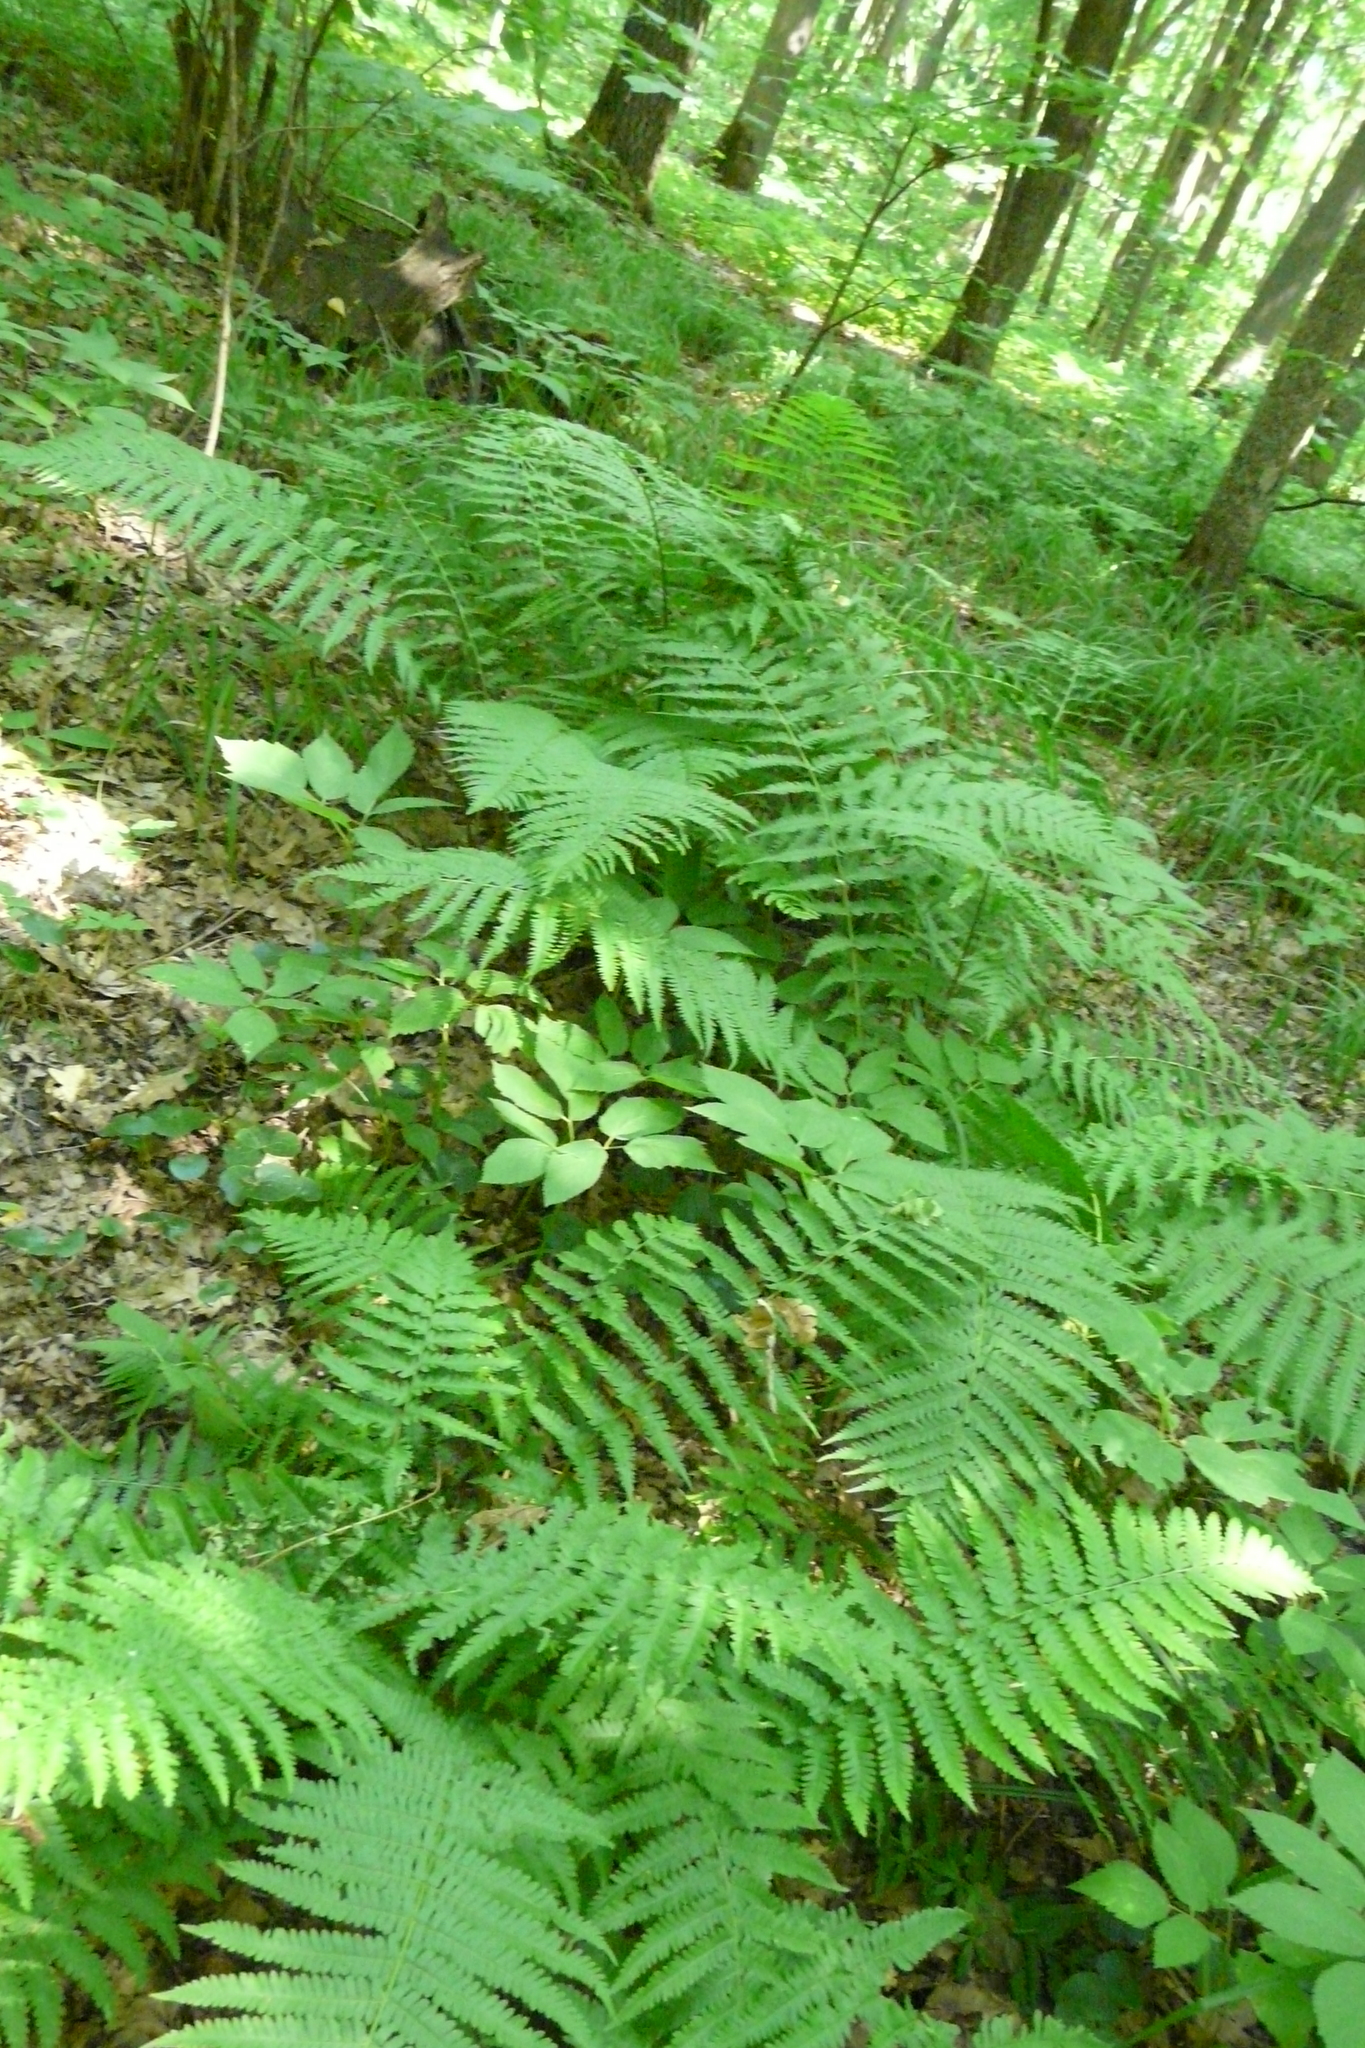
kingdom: Plantae
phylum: Tracheophyta
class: Polypodiopsida
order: Polypodiales
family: Dryopteridaceae
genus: Dryopteris
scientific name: Dryopteris filix-mas
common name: Male fern
